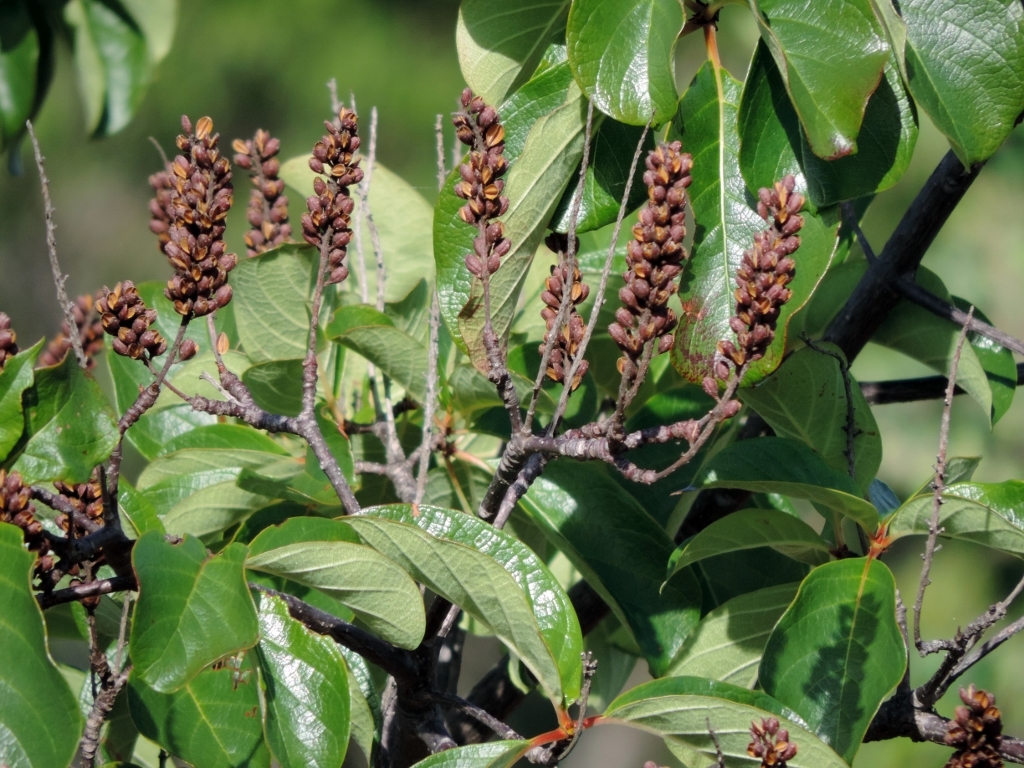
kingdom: Plantae
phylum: Tracheophyta
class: Magnoliopsida
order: Gentianales
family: Rubiaceae
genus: Hymenodictyon
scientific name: Hymenodictyon floribundum
